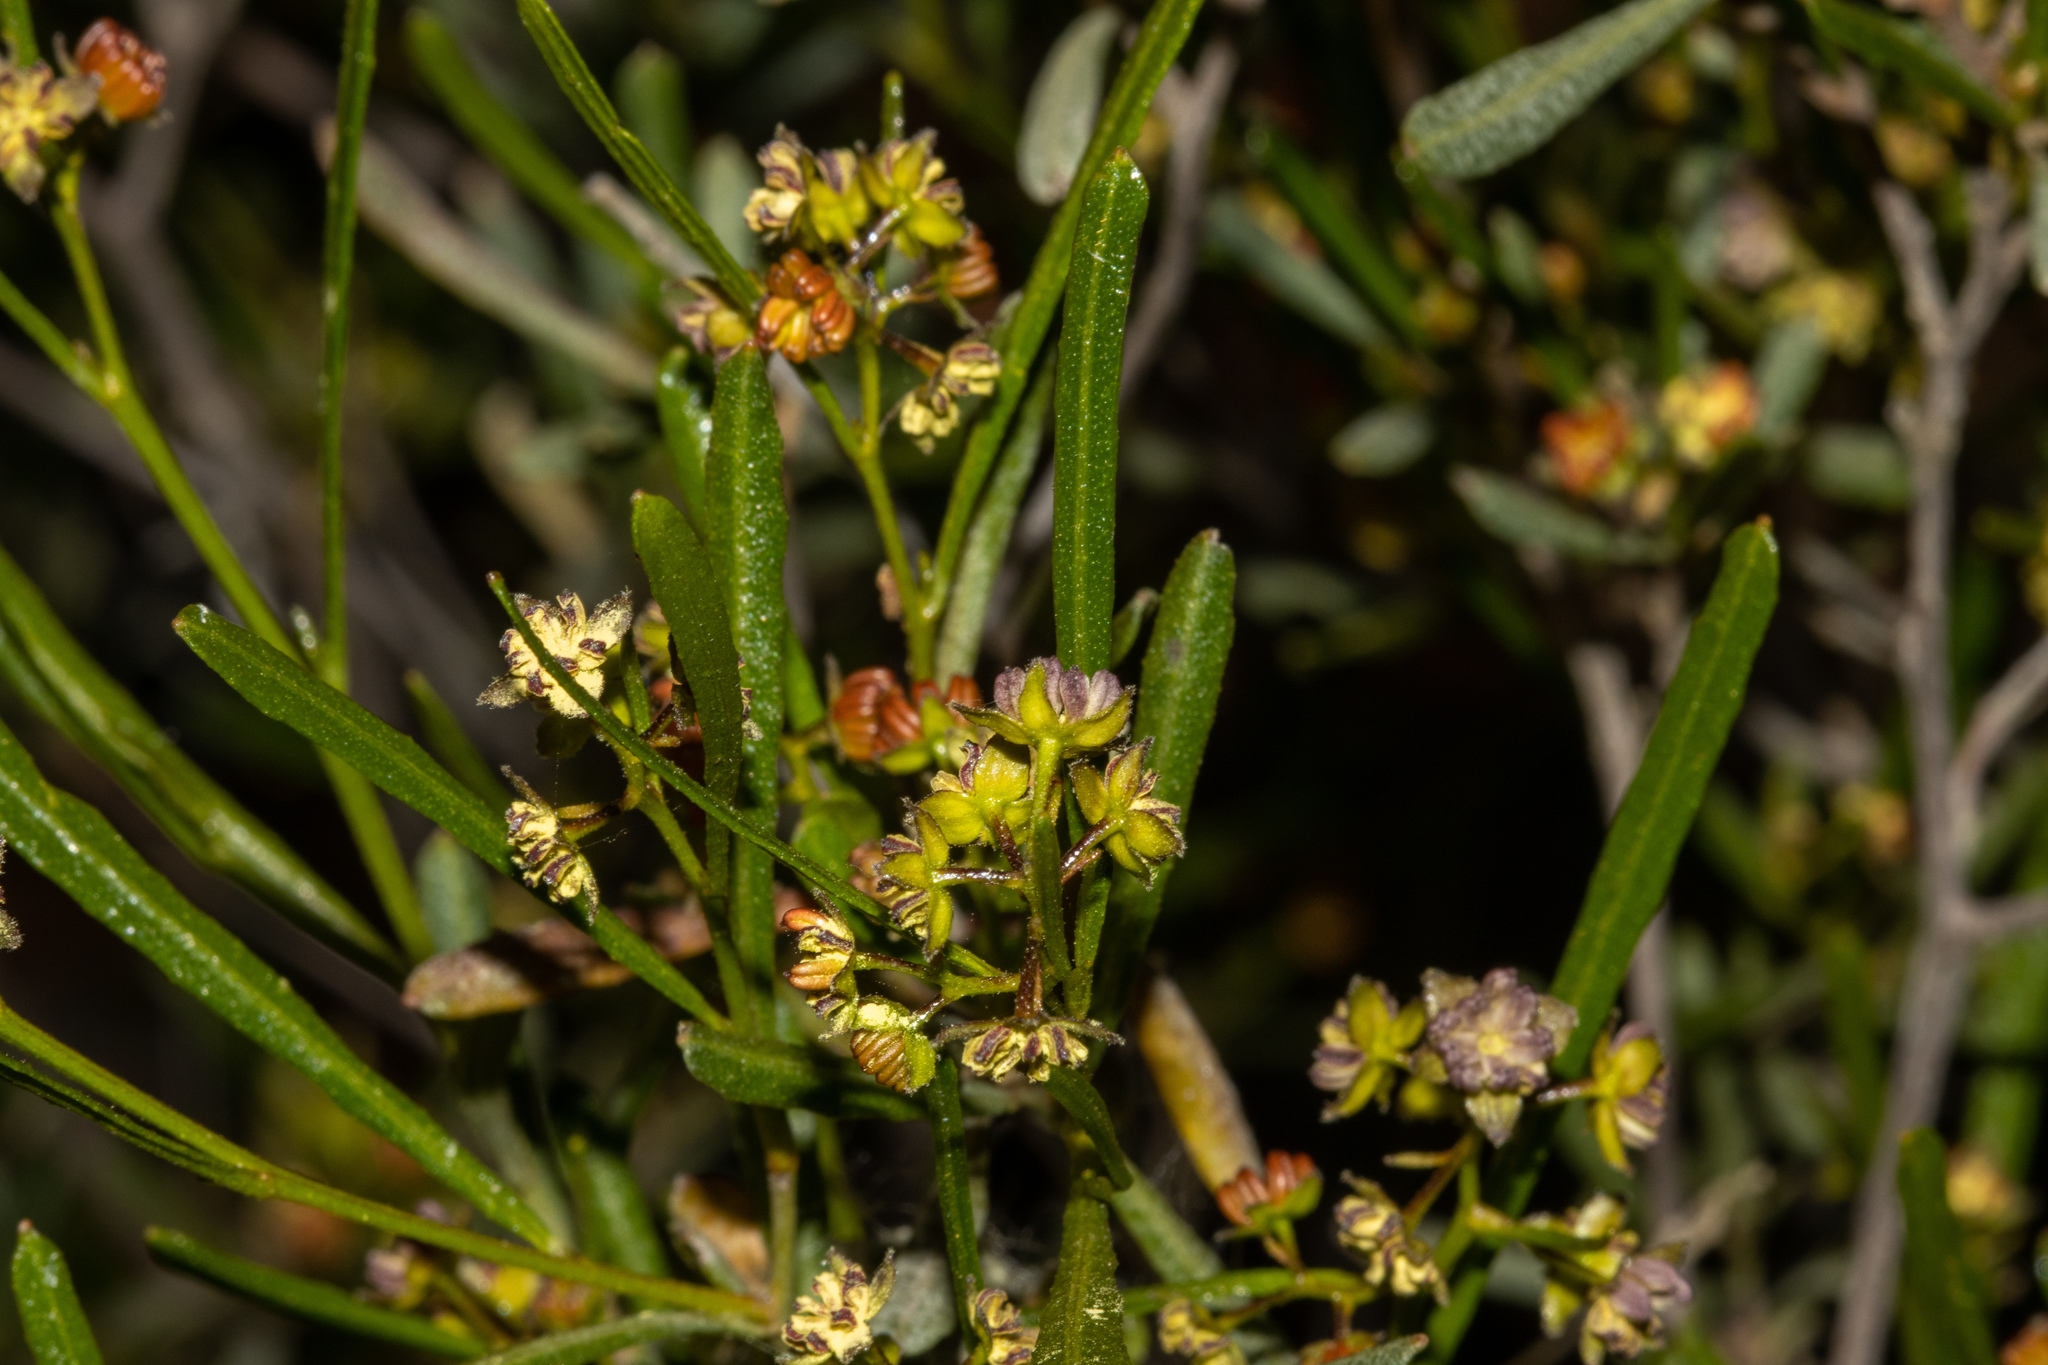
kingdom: Plantae
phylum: Tracheophyta
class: Magnoliopsida
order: Sapindales
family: Sapindaceae
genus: Dodonaea
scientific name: Dodonaea viscosa
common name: Hopbush
